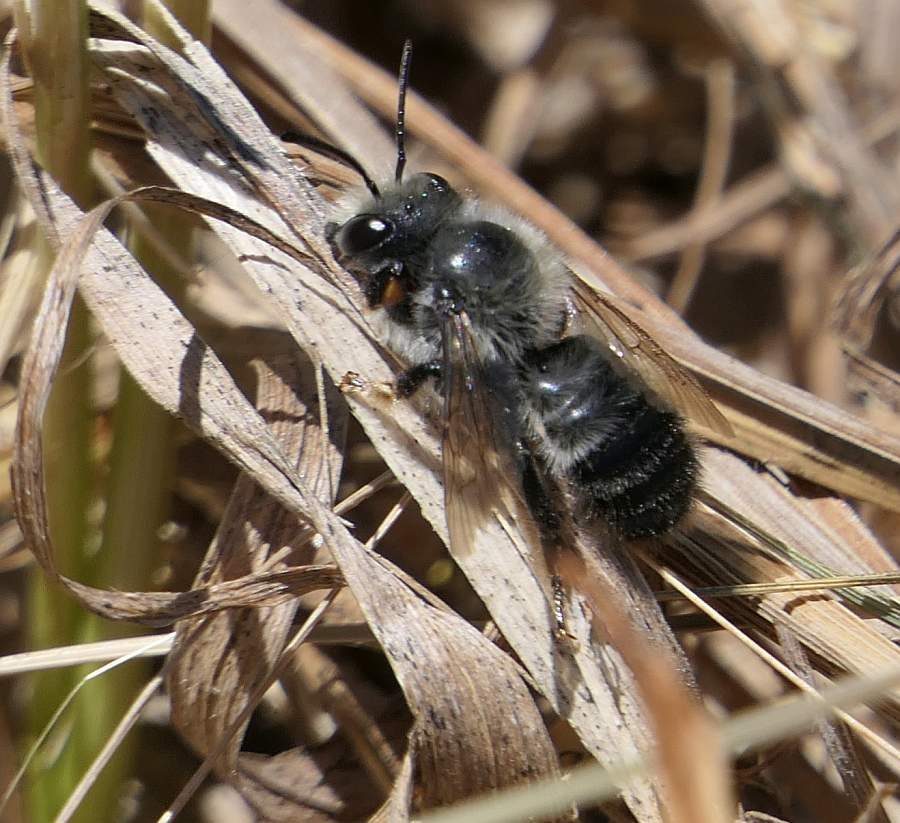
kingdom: Animalia
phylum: Arthropoda
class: Insecta
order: Hymenoptera
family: Megachilidae
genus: Megachile
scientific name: Megachile melanophaea
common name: Black-and-gray leafcutter bee
